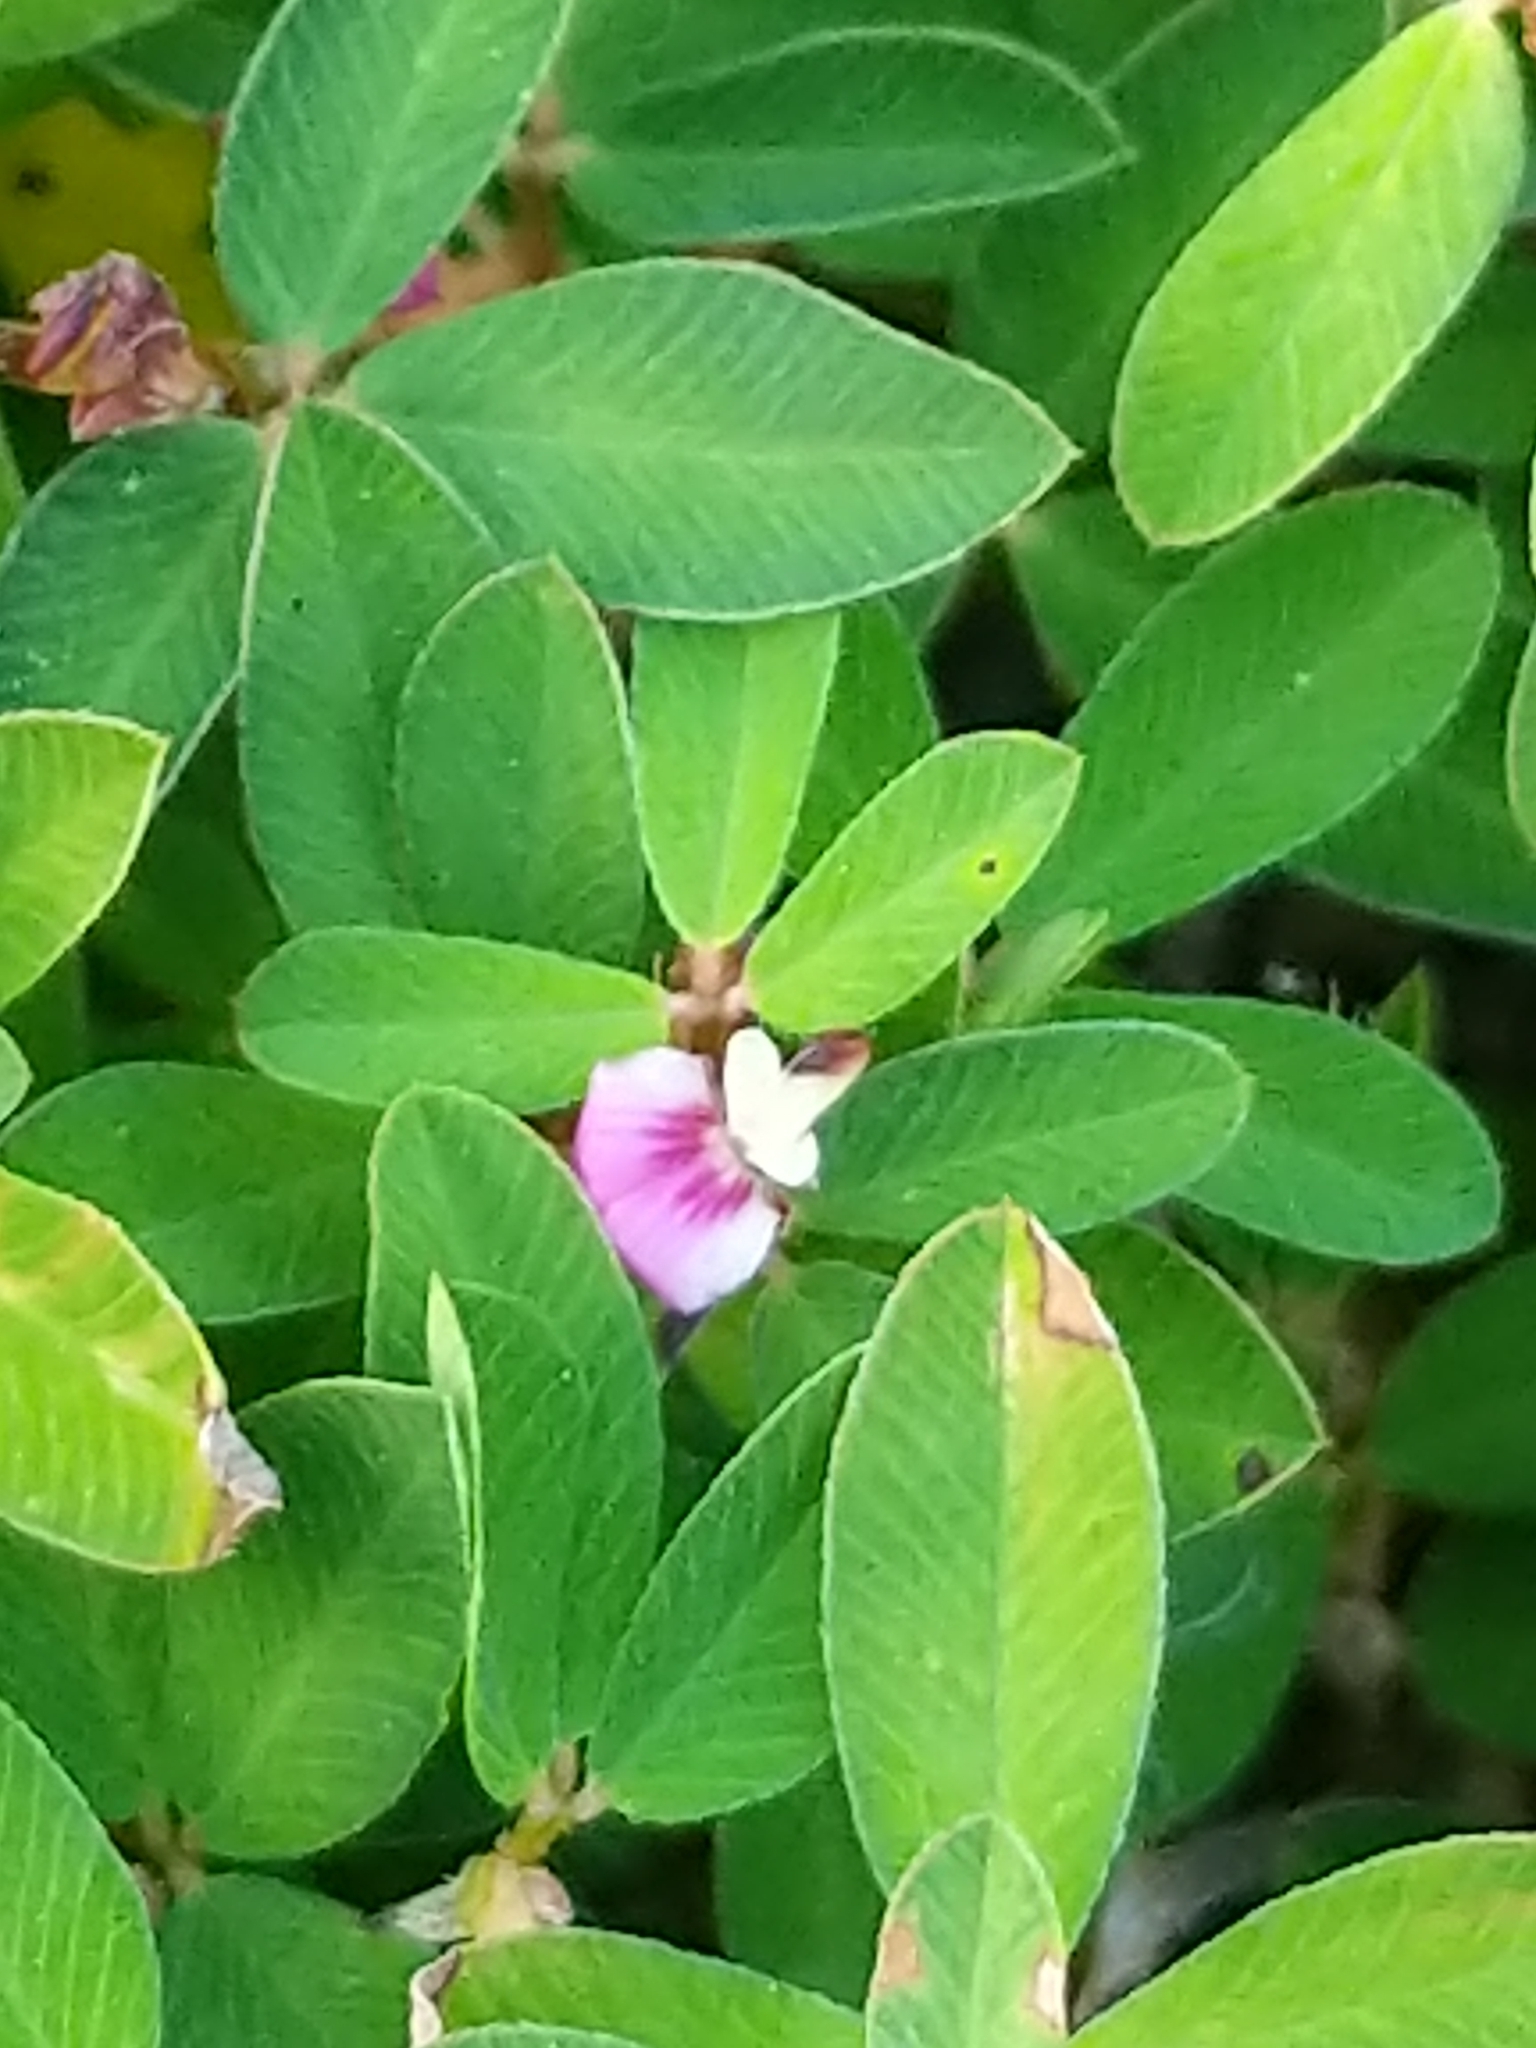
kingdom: Plantae
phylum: Tracheophyta
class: Magnoliopsida
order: Fabales
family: Fabaceae
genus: Kummerowia
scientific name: Kummerowia striata
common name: Japanese clover
